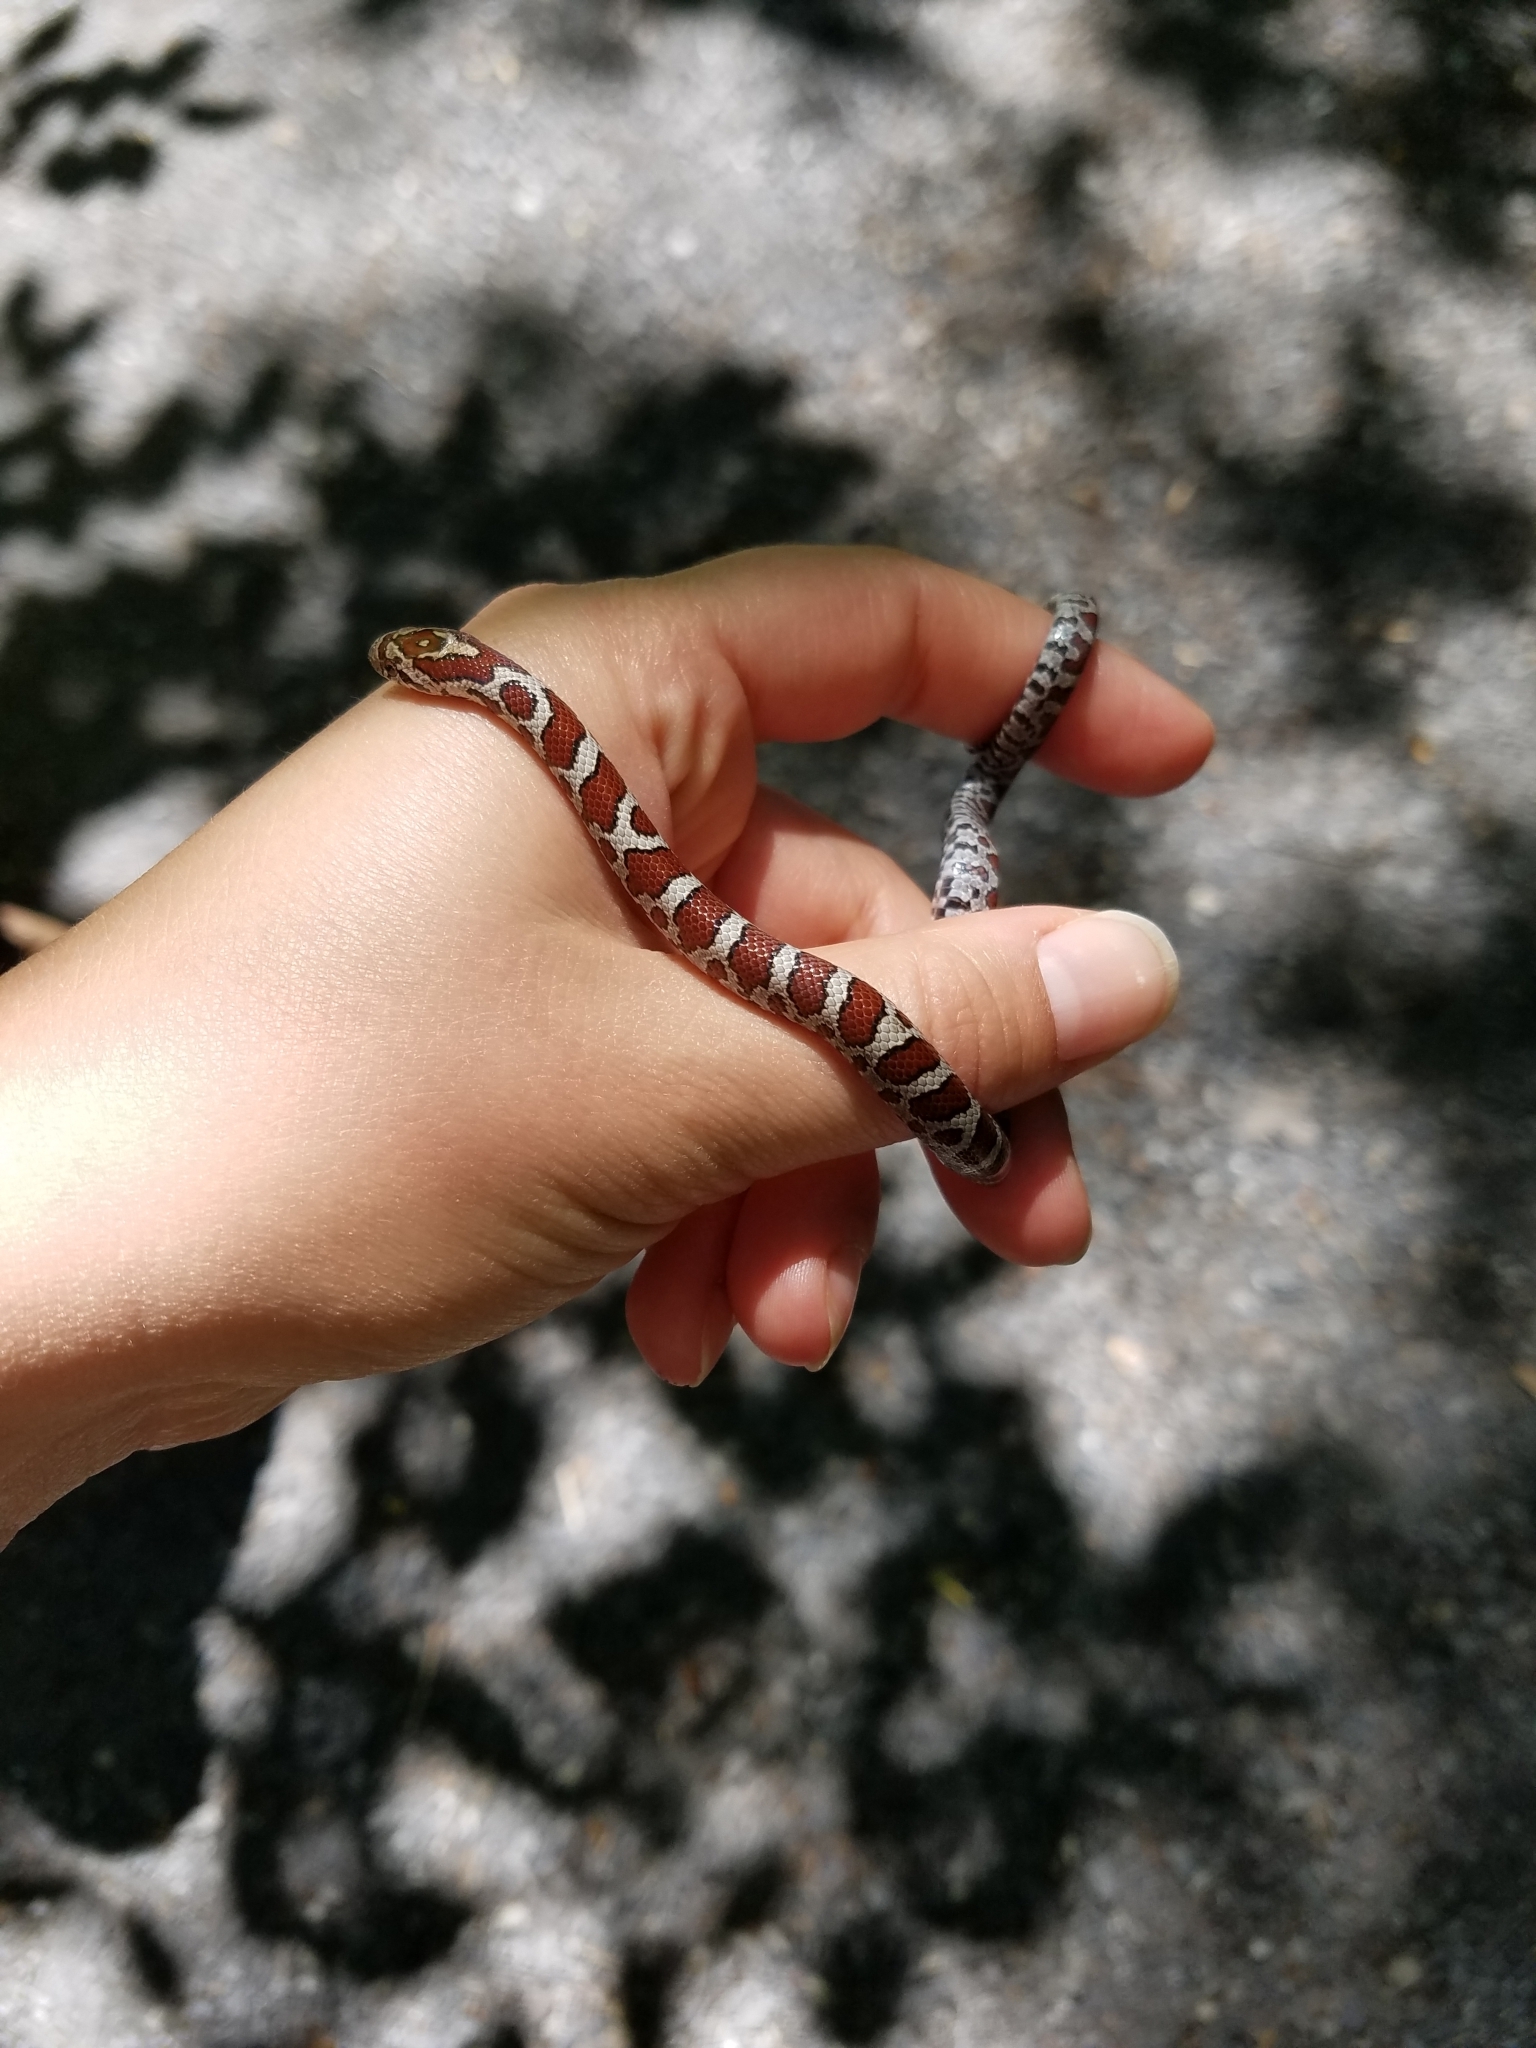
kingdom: Animalia
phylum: Chordata
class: Squamata
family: Colubridae
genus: Lampropeltis
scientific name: Lampropeltis triangulum
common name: Eastern milksnake
